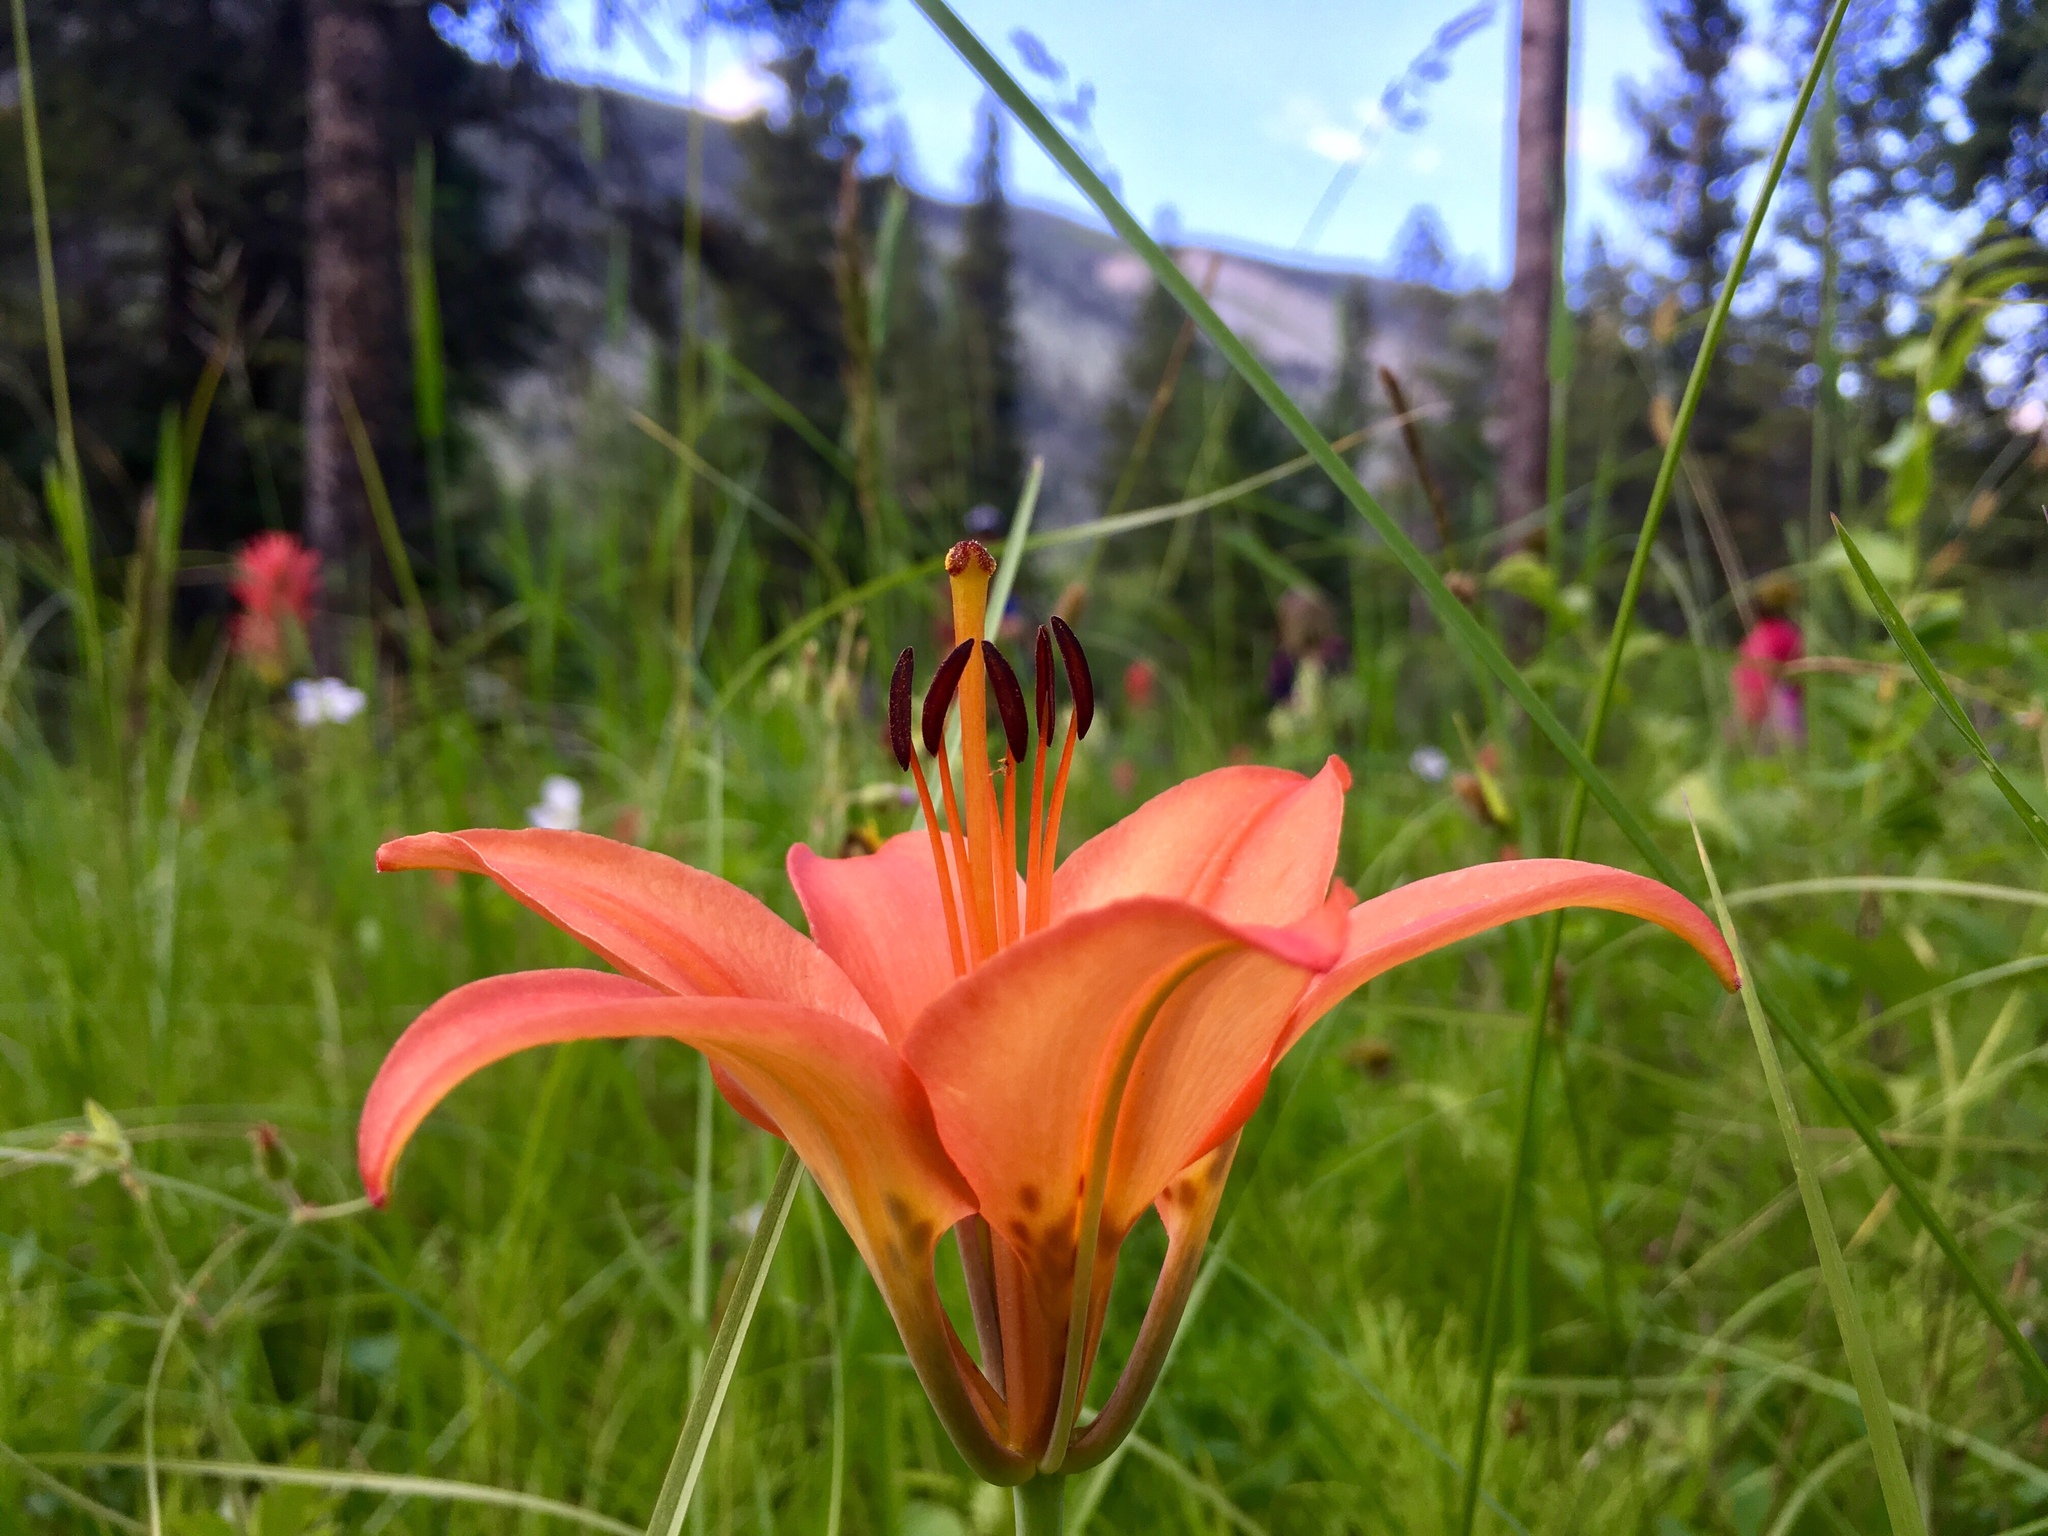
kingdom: Plantae
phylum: Tracheophyta
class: Liliopsida
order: Liliales
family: Liliaceae
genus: Lilium
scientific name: Lilium philadelphicum
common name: Red lily
